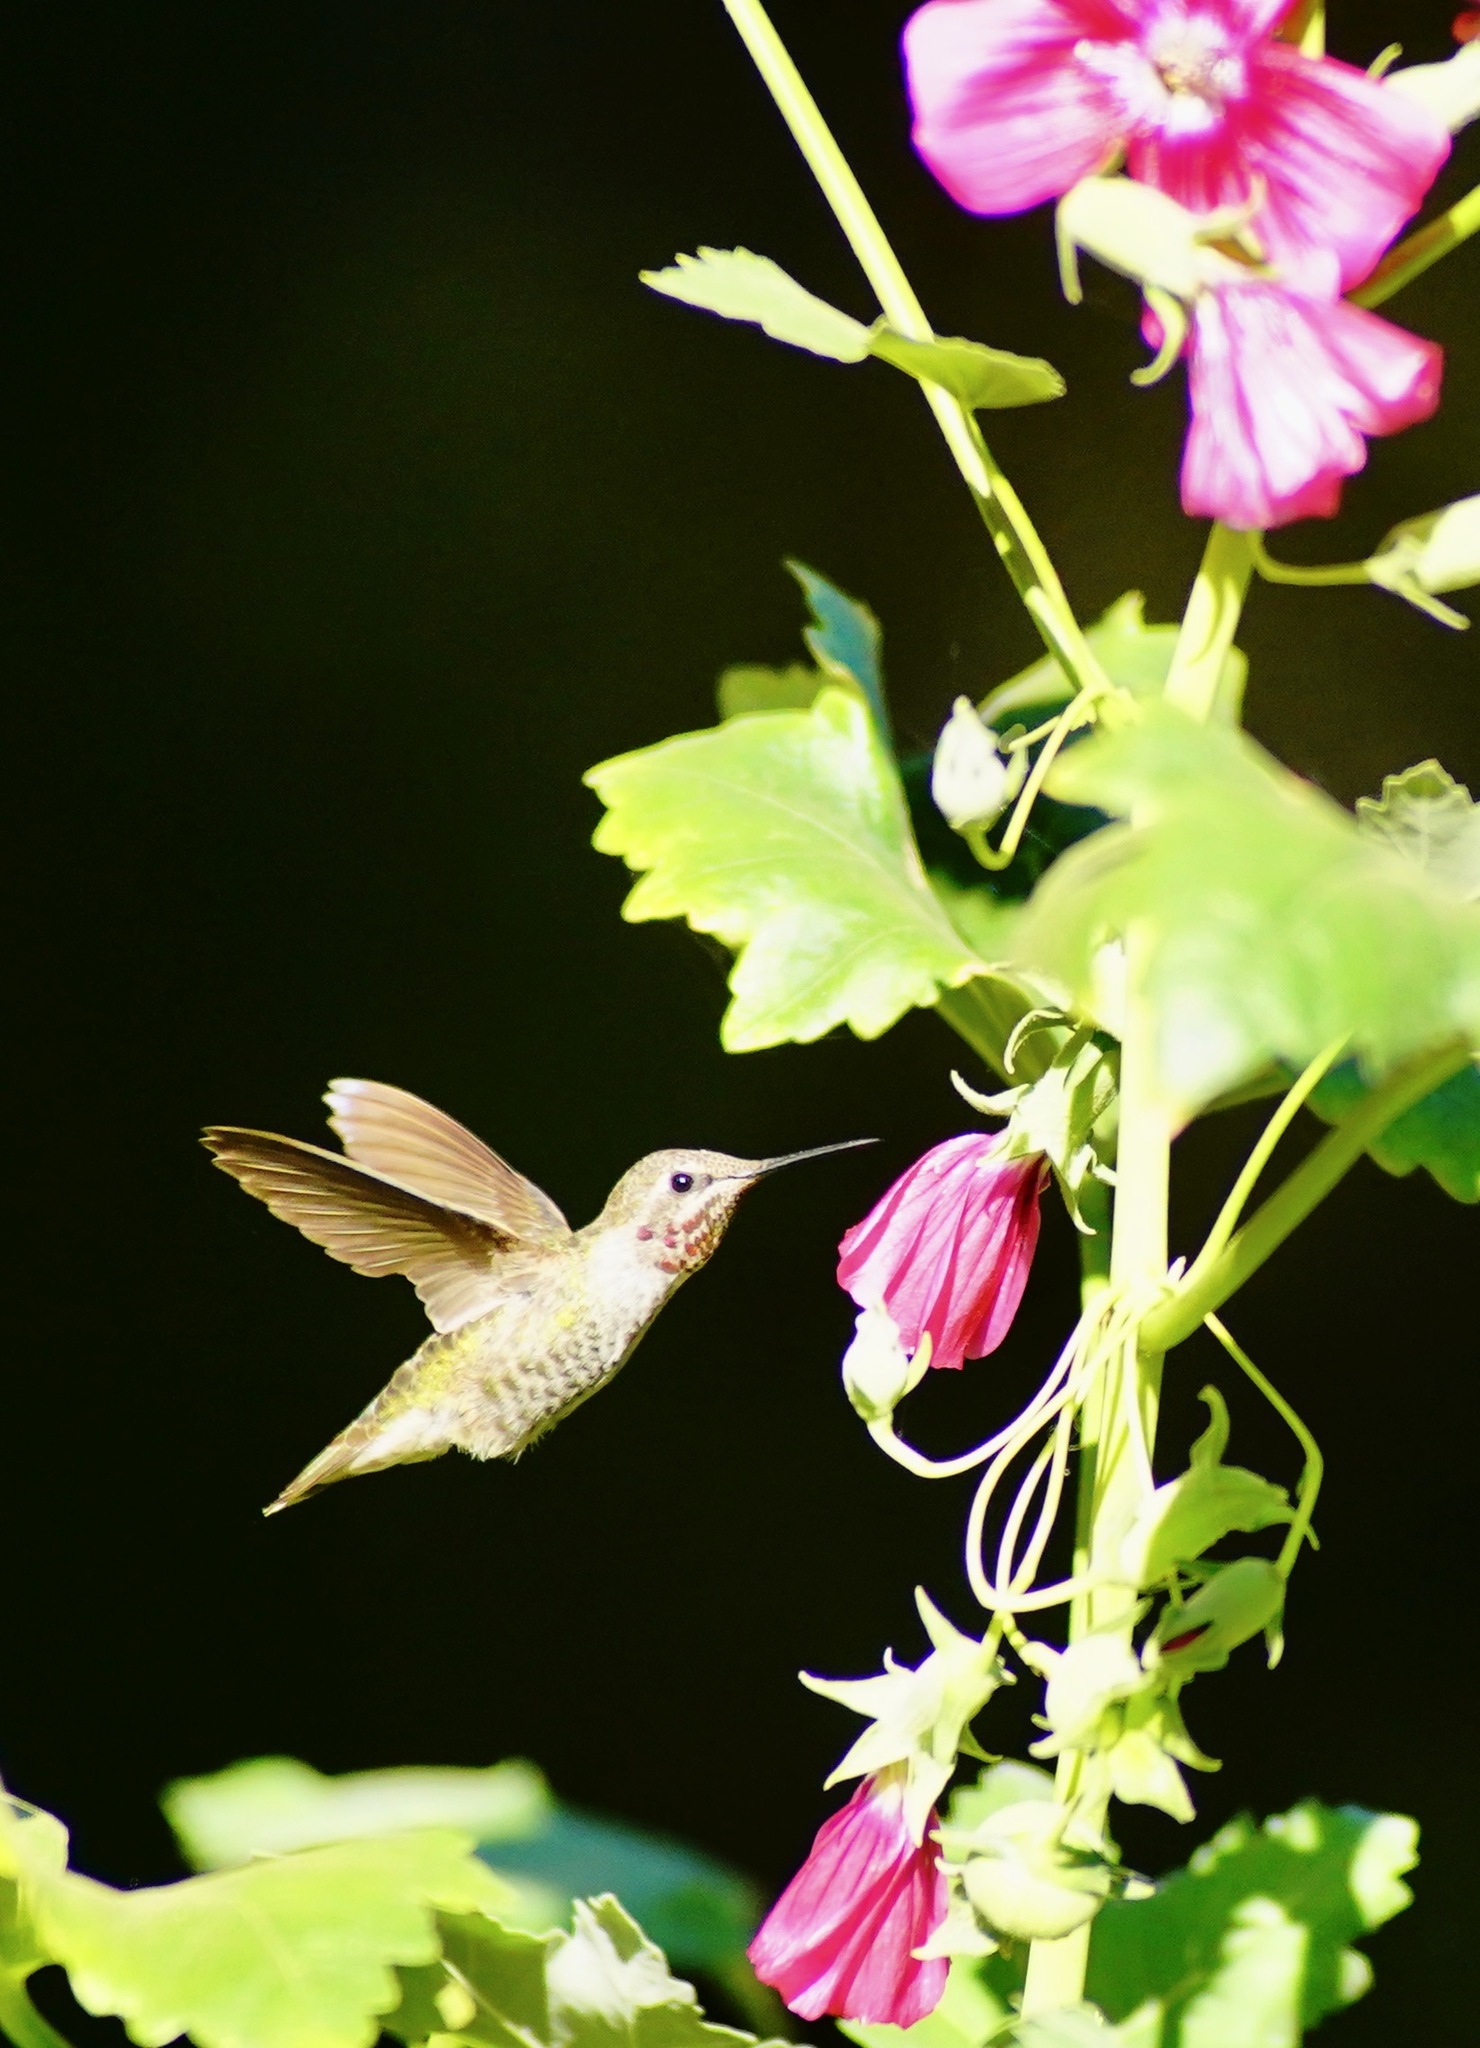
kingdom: Animalia
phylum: Chordata
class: Aves
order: Apodiformes
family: Trochilidae
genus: Calypte
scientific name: Calypte anna
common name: Anna's hummingbird
